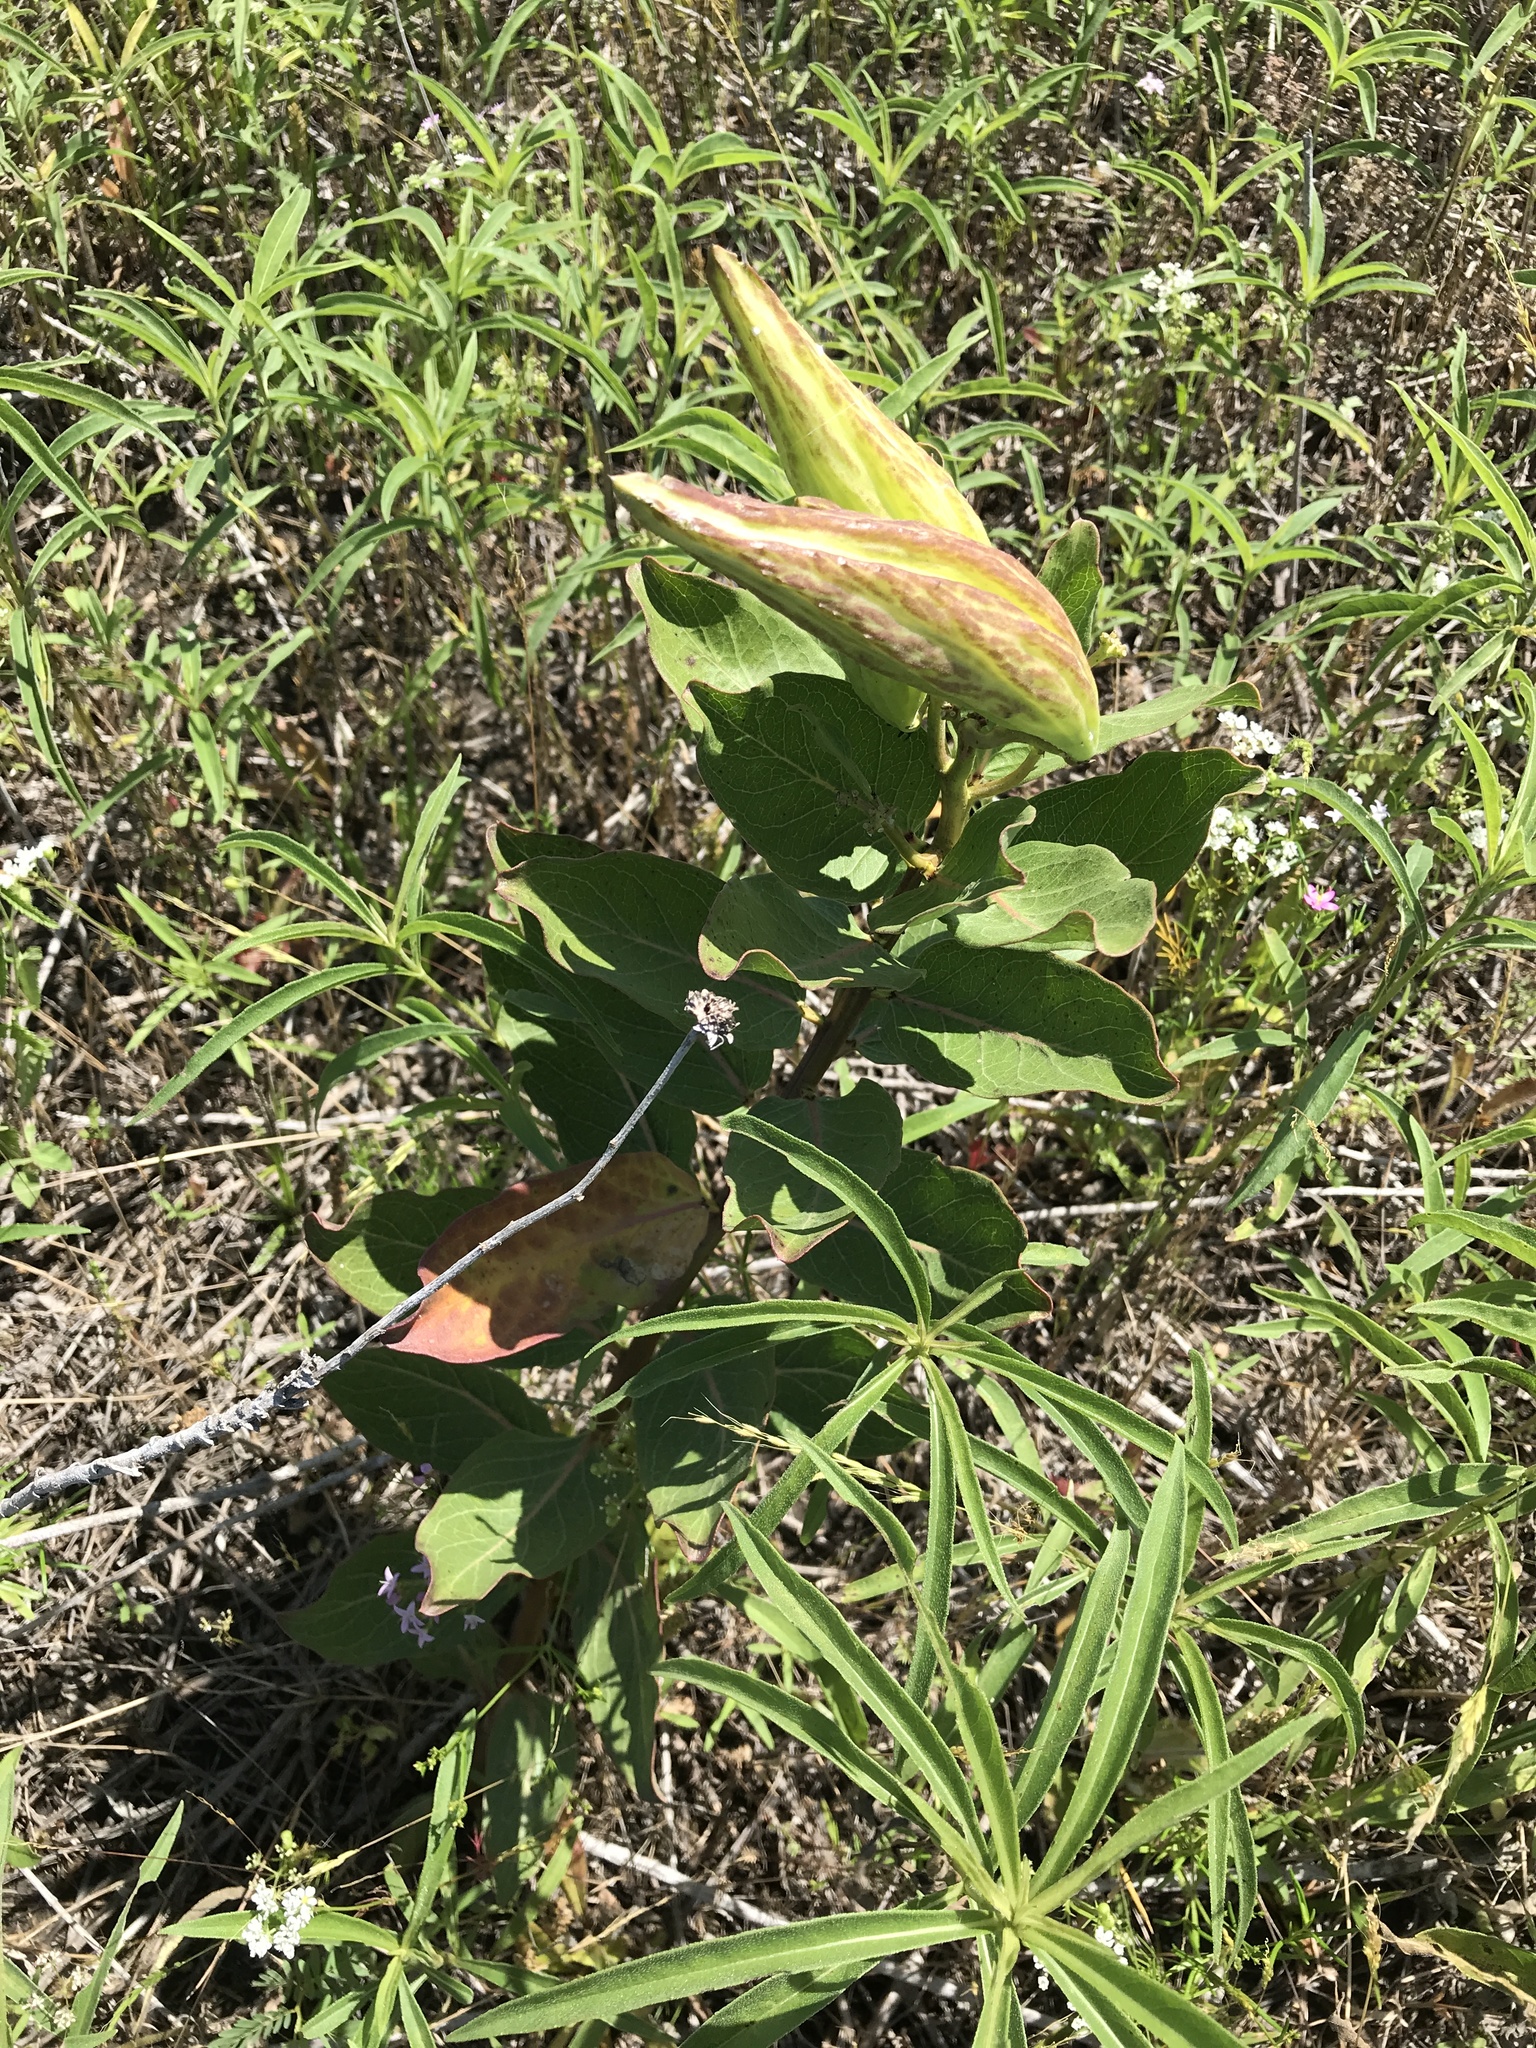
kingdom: Plantae
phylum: Tracheophyta
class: Magnoliopsida
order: Gentianales
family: Apocynaceae
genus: Asclepias
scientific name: Asclepias viridis
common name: Antelope-horns
